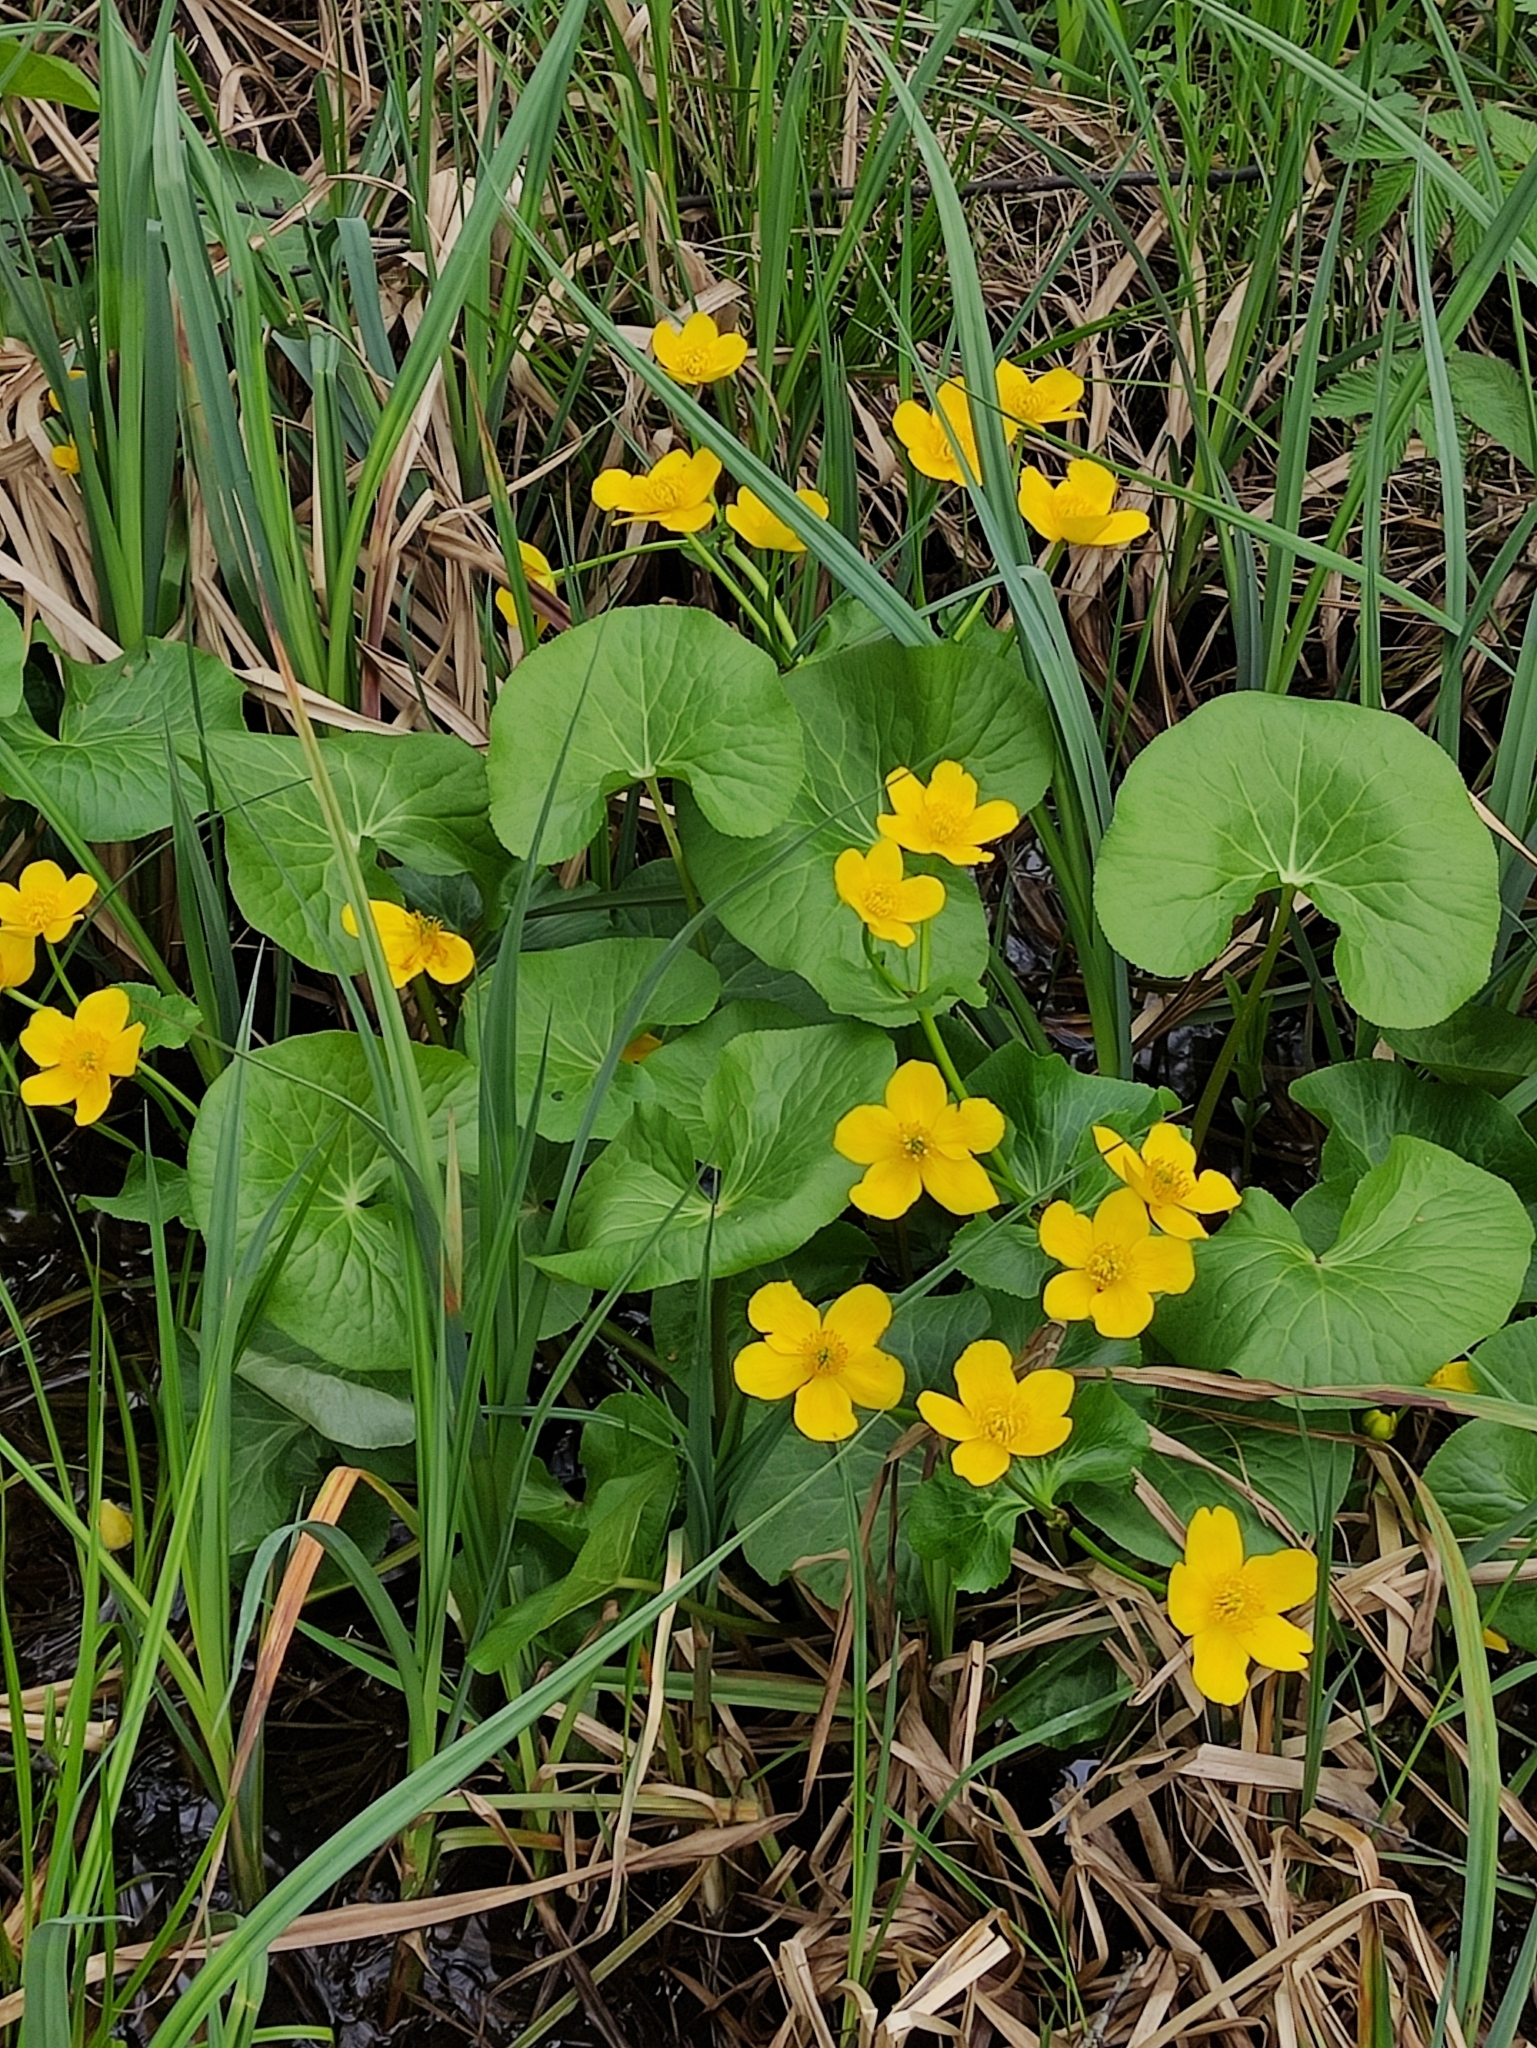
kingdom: Plantae
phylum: Tracheophyta
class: Magnoliopsida
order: Ranunculales
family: Ranunculaceae
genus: Caltha
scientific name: Caltha palustris
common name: Marsh marigold
